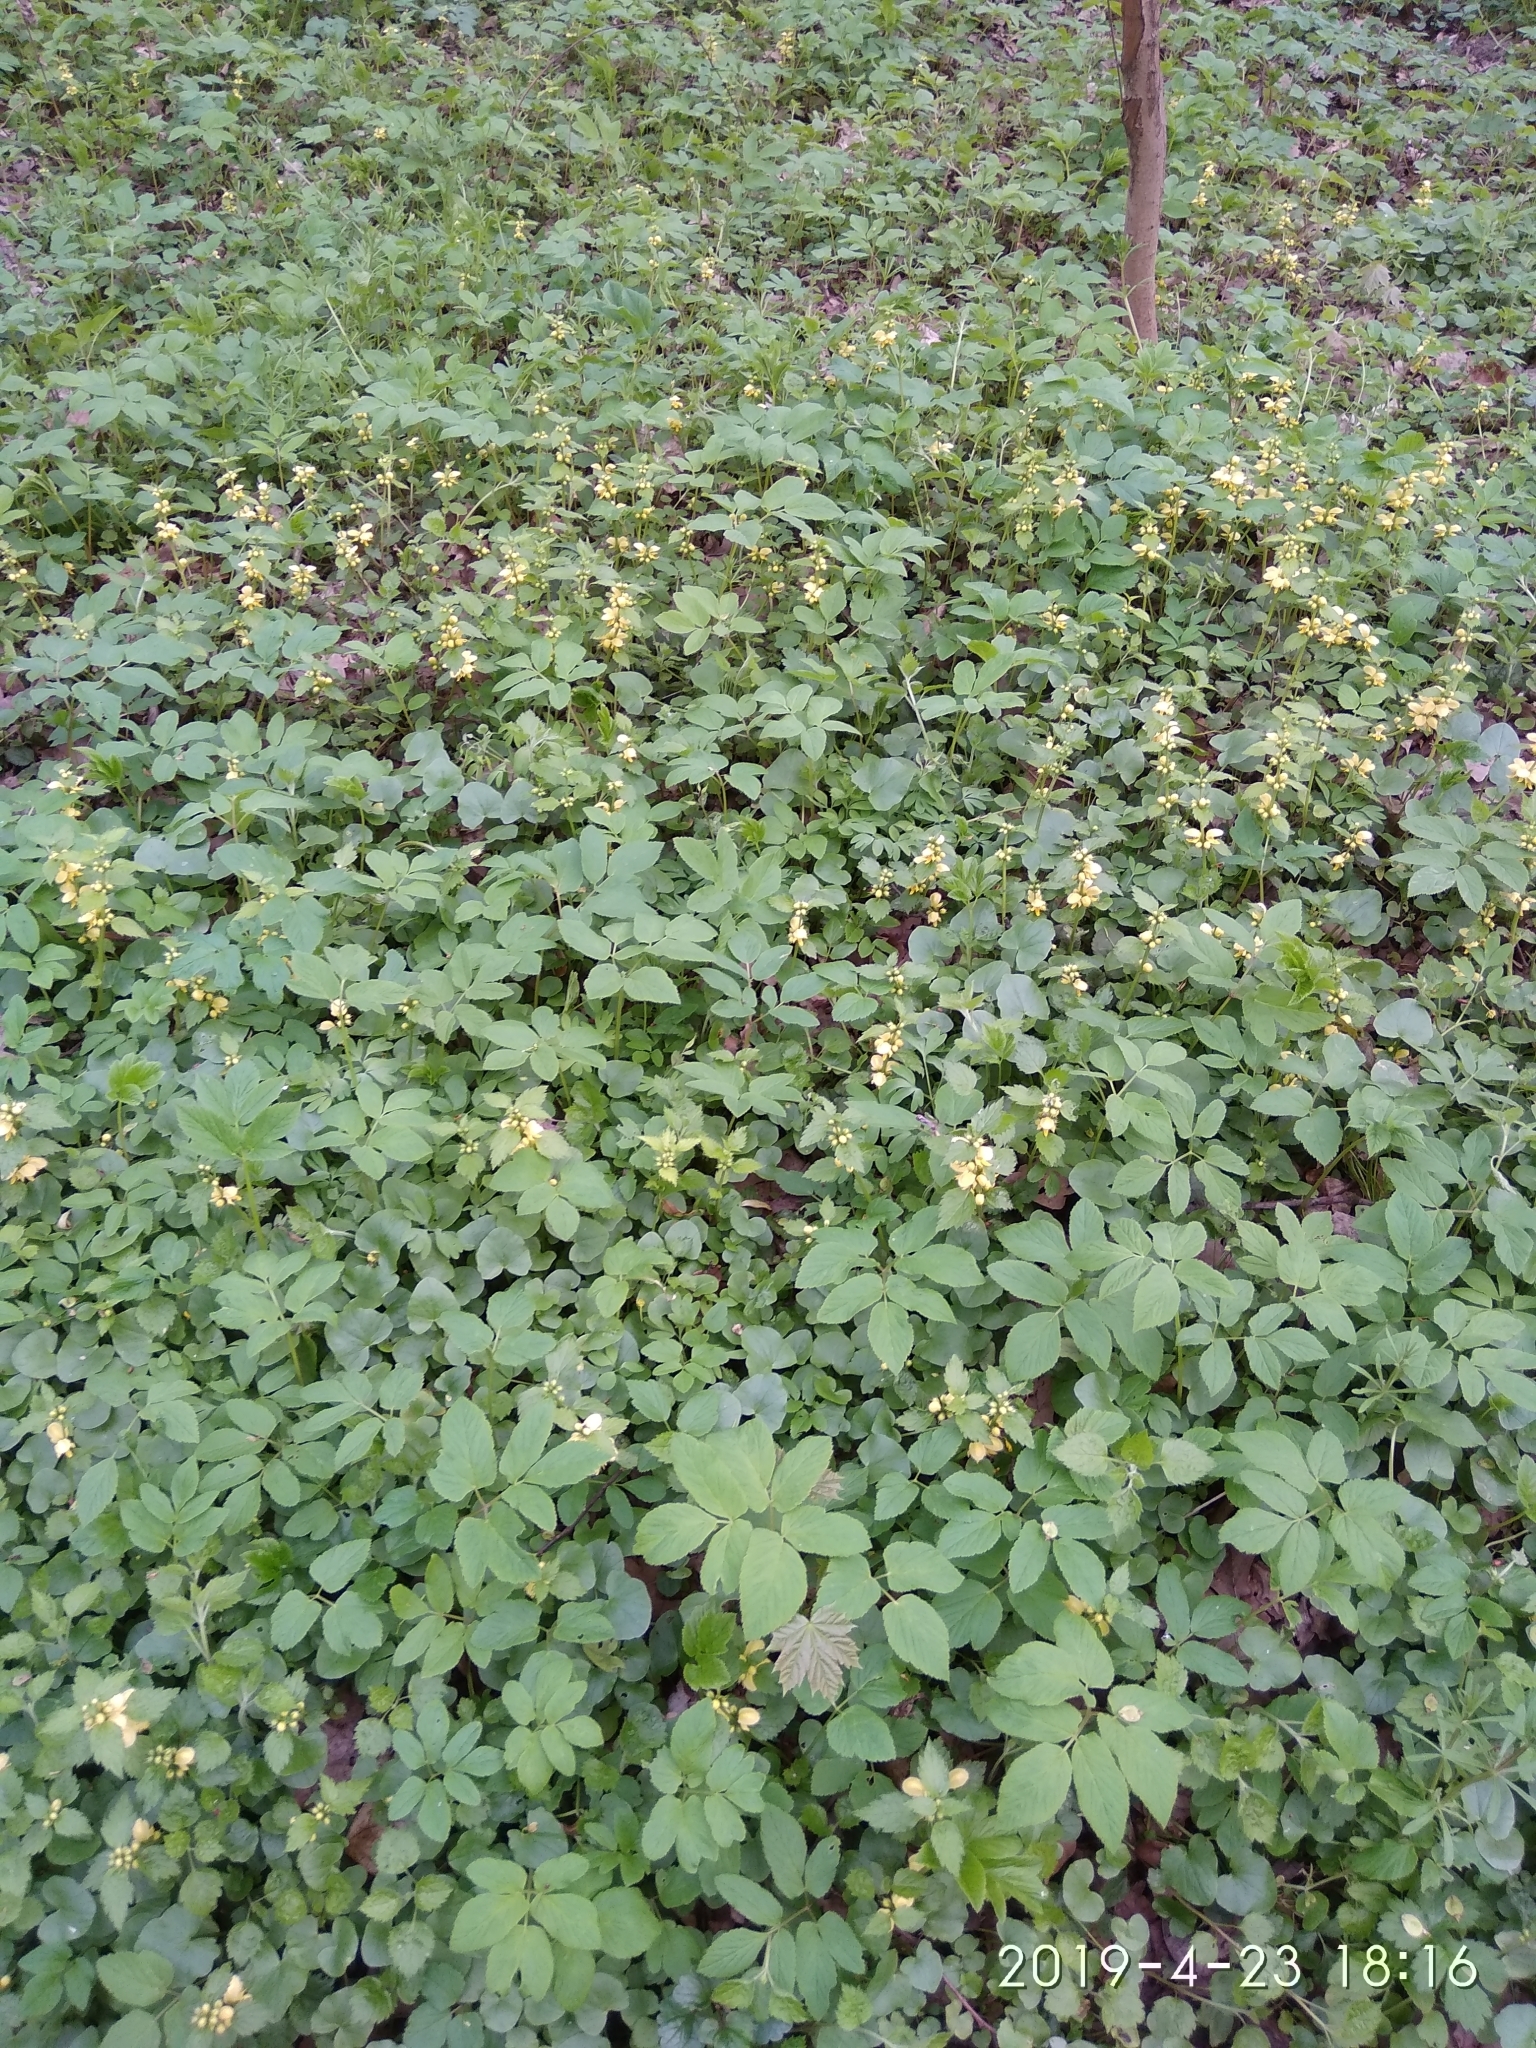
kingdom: Plantae
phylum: Tracheophyta
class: Magnoliopsida
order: Lamiales
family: Lamiaceae
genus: Lamium
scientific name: Lamium galeobdolon
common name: Yellow archangel
